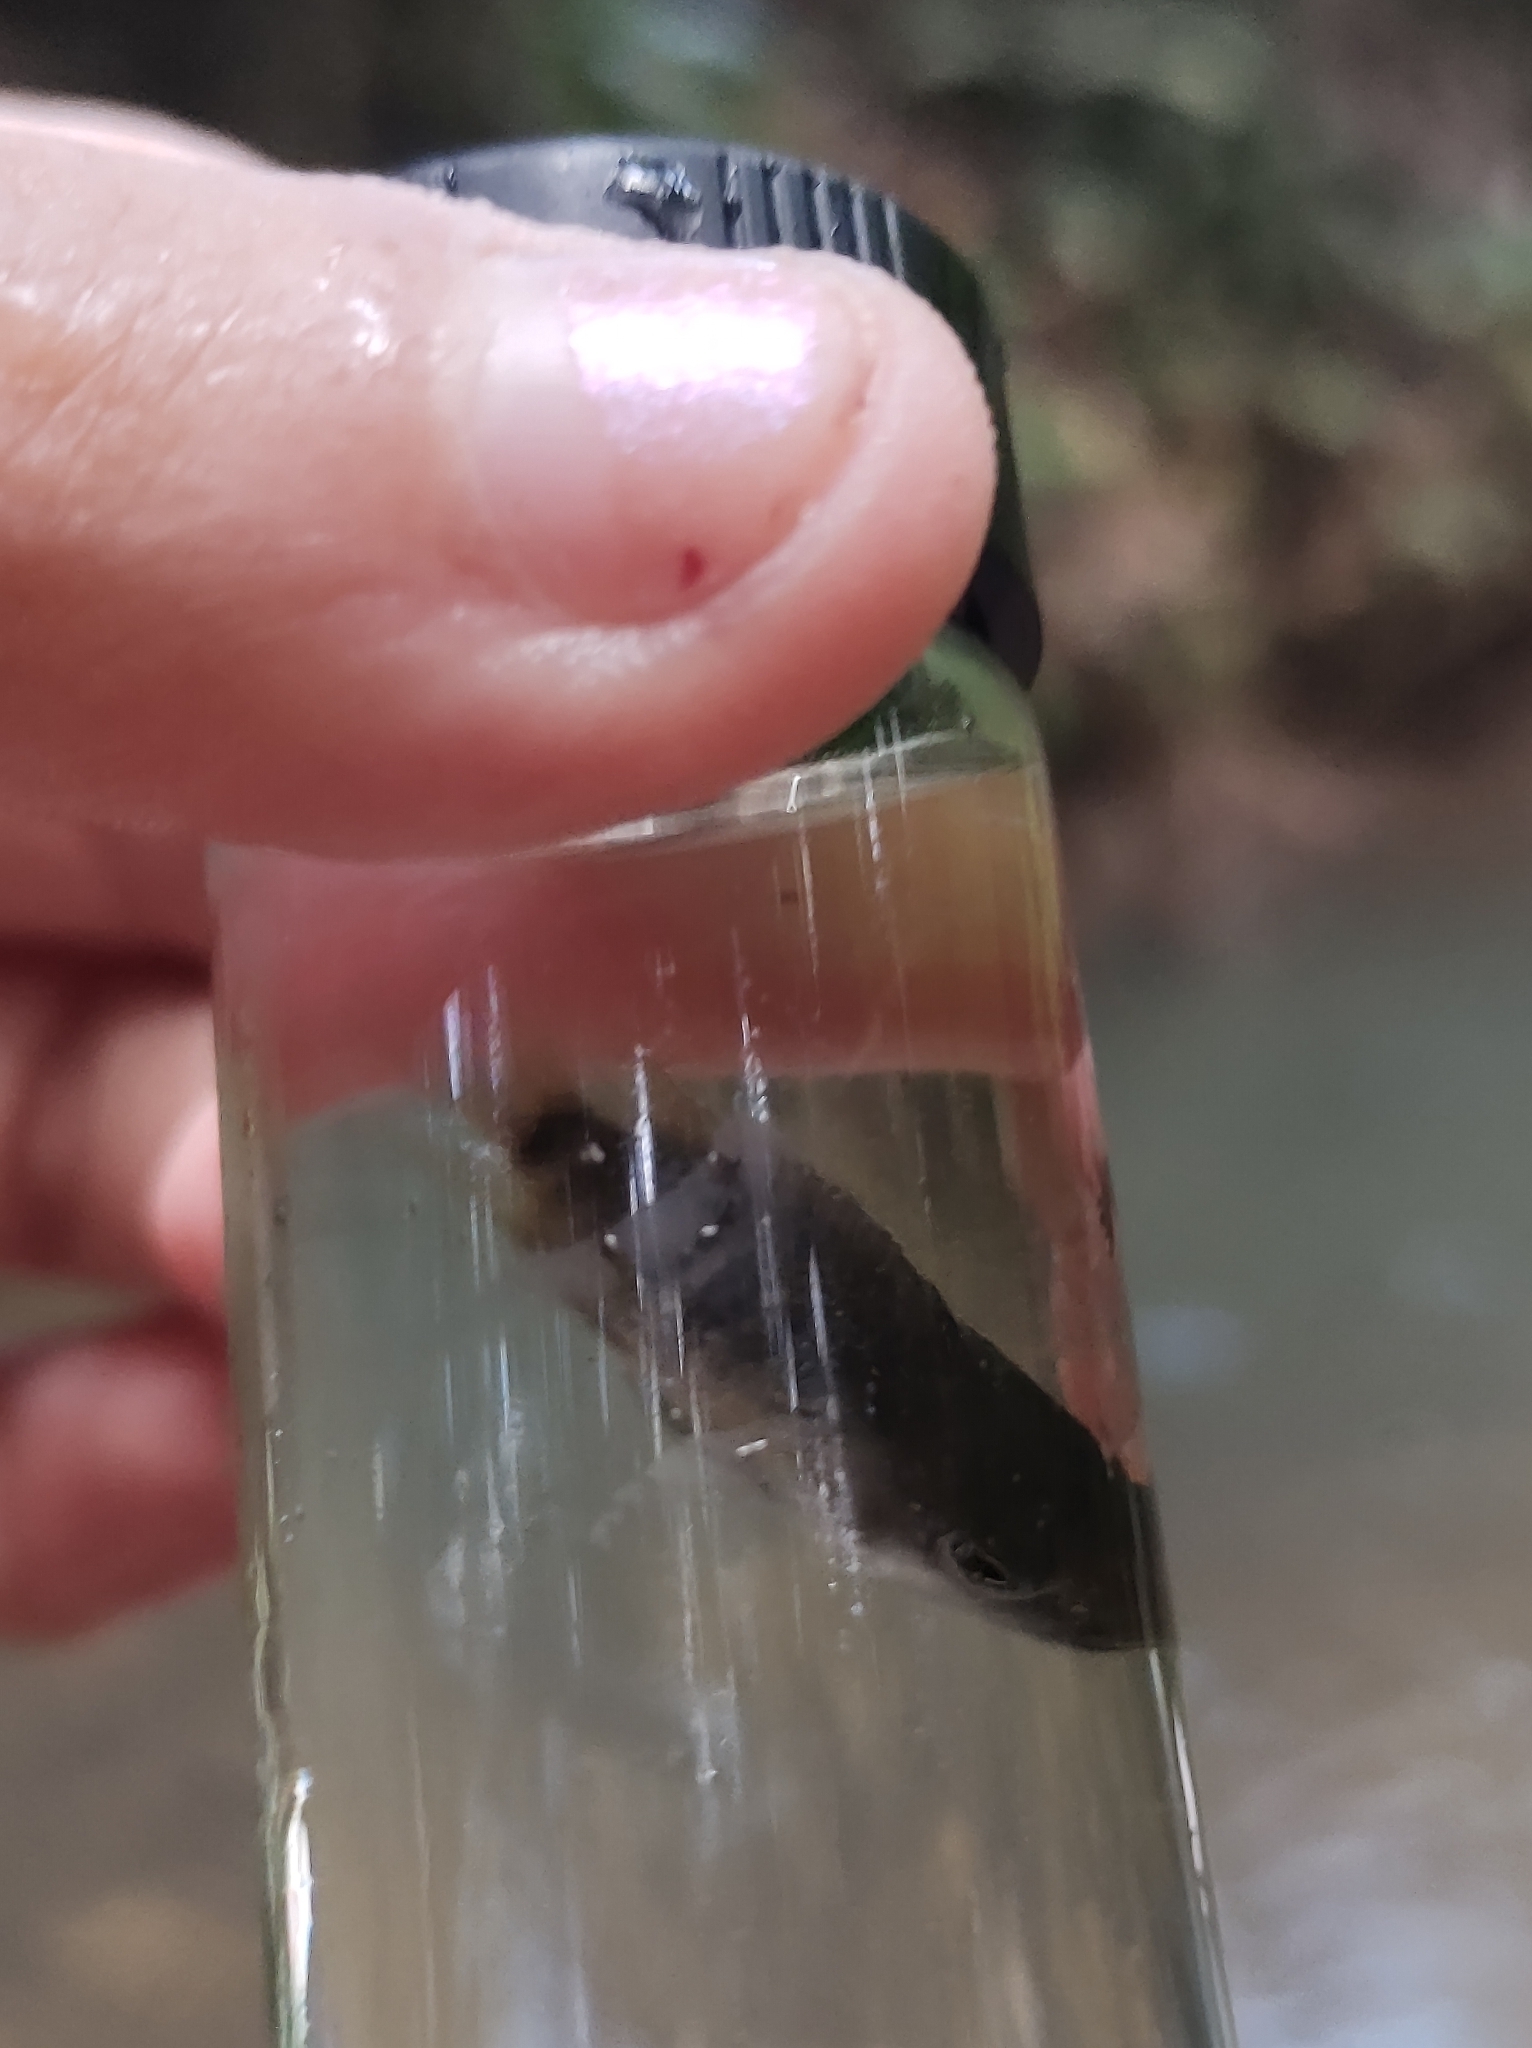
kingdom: Animalia
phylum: Chordata
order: Perciformes
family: Cichlidae
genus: Hypsophrys
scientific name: Hypsophrys nematopus
